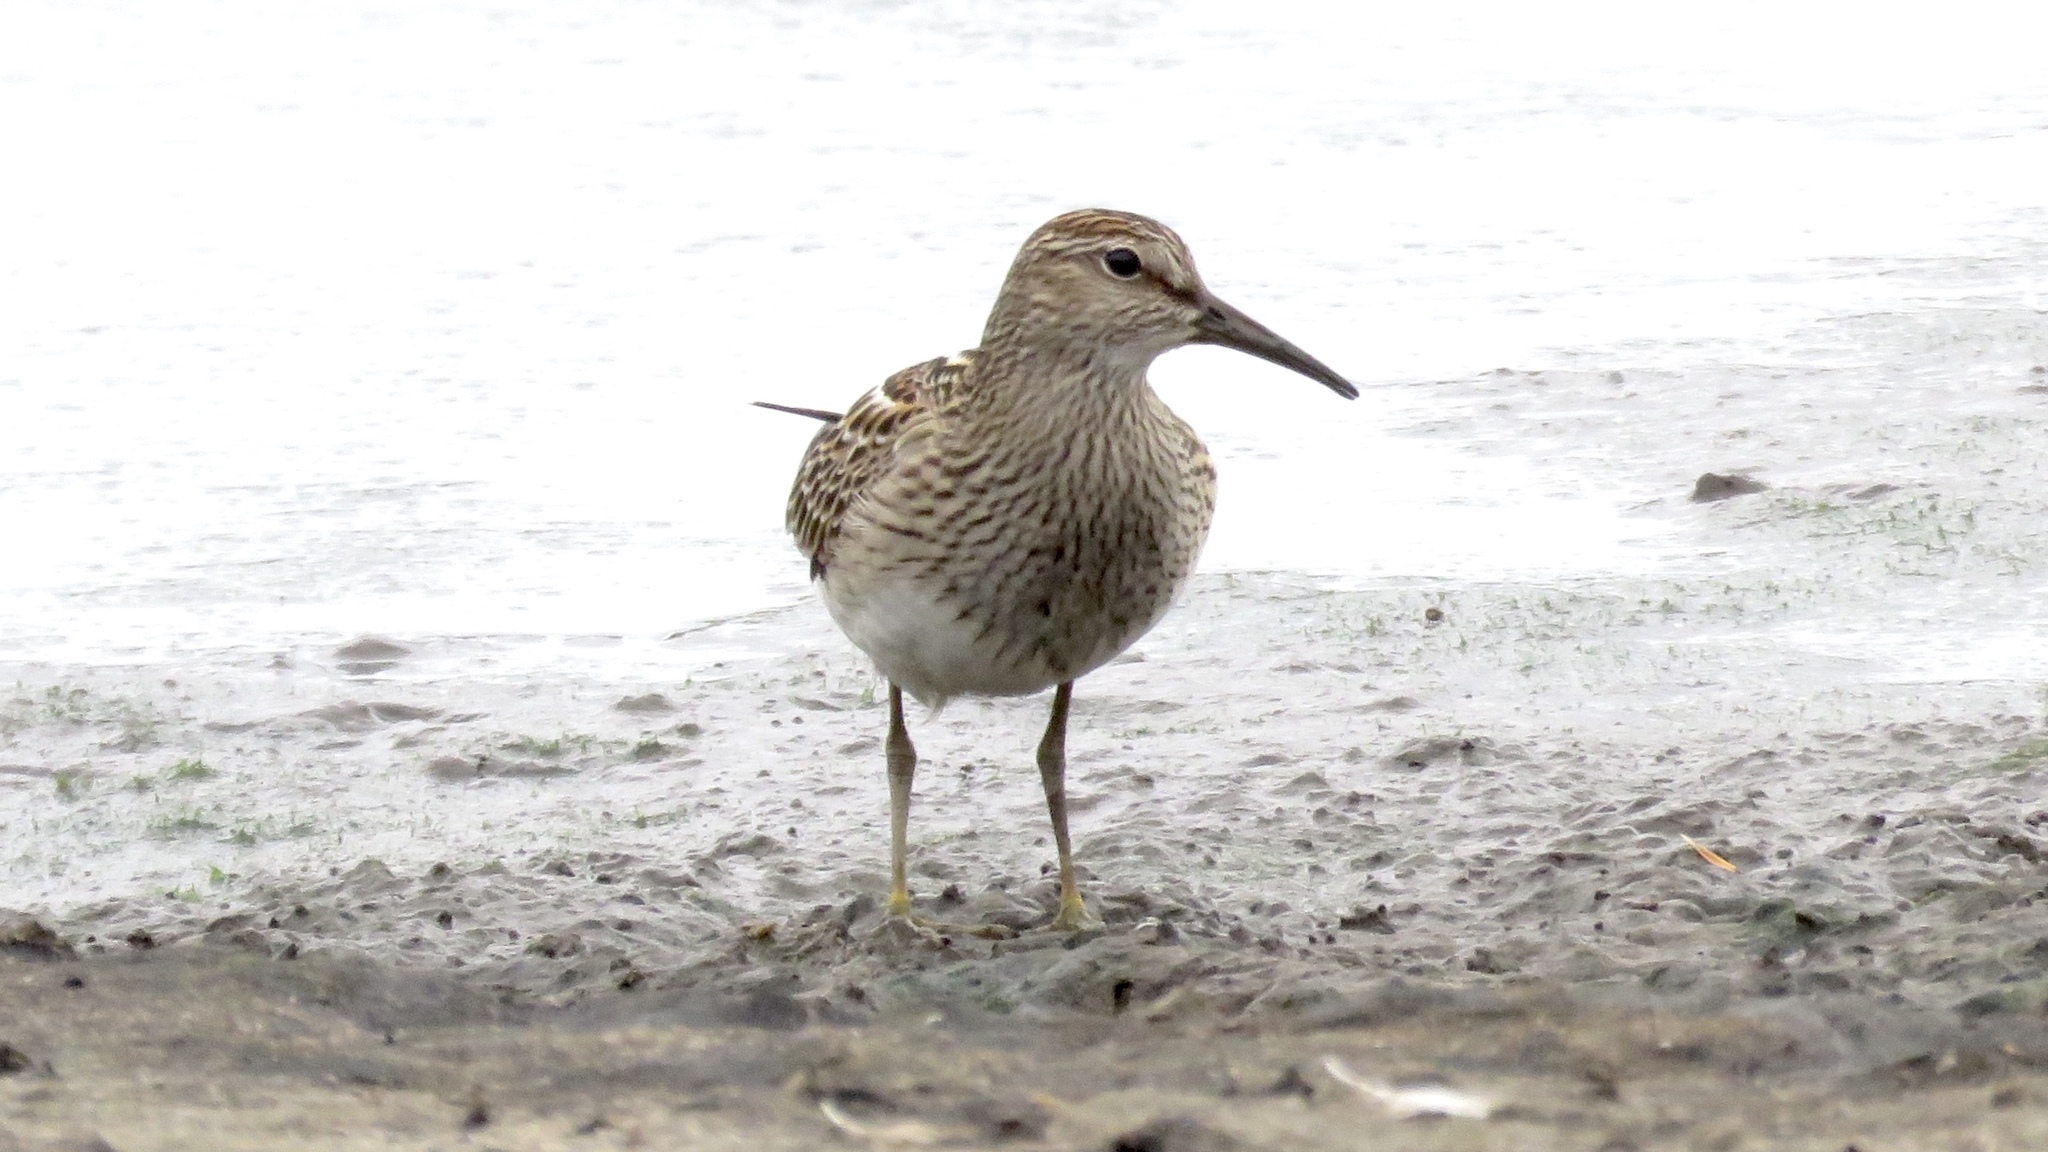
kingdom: Animalia
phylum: Chordata
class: Aves
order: Charadriiformes
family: Scolopacidae
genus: Calidris
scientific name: Calidris melanotos
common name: Pectoral sandpiper
